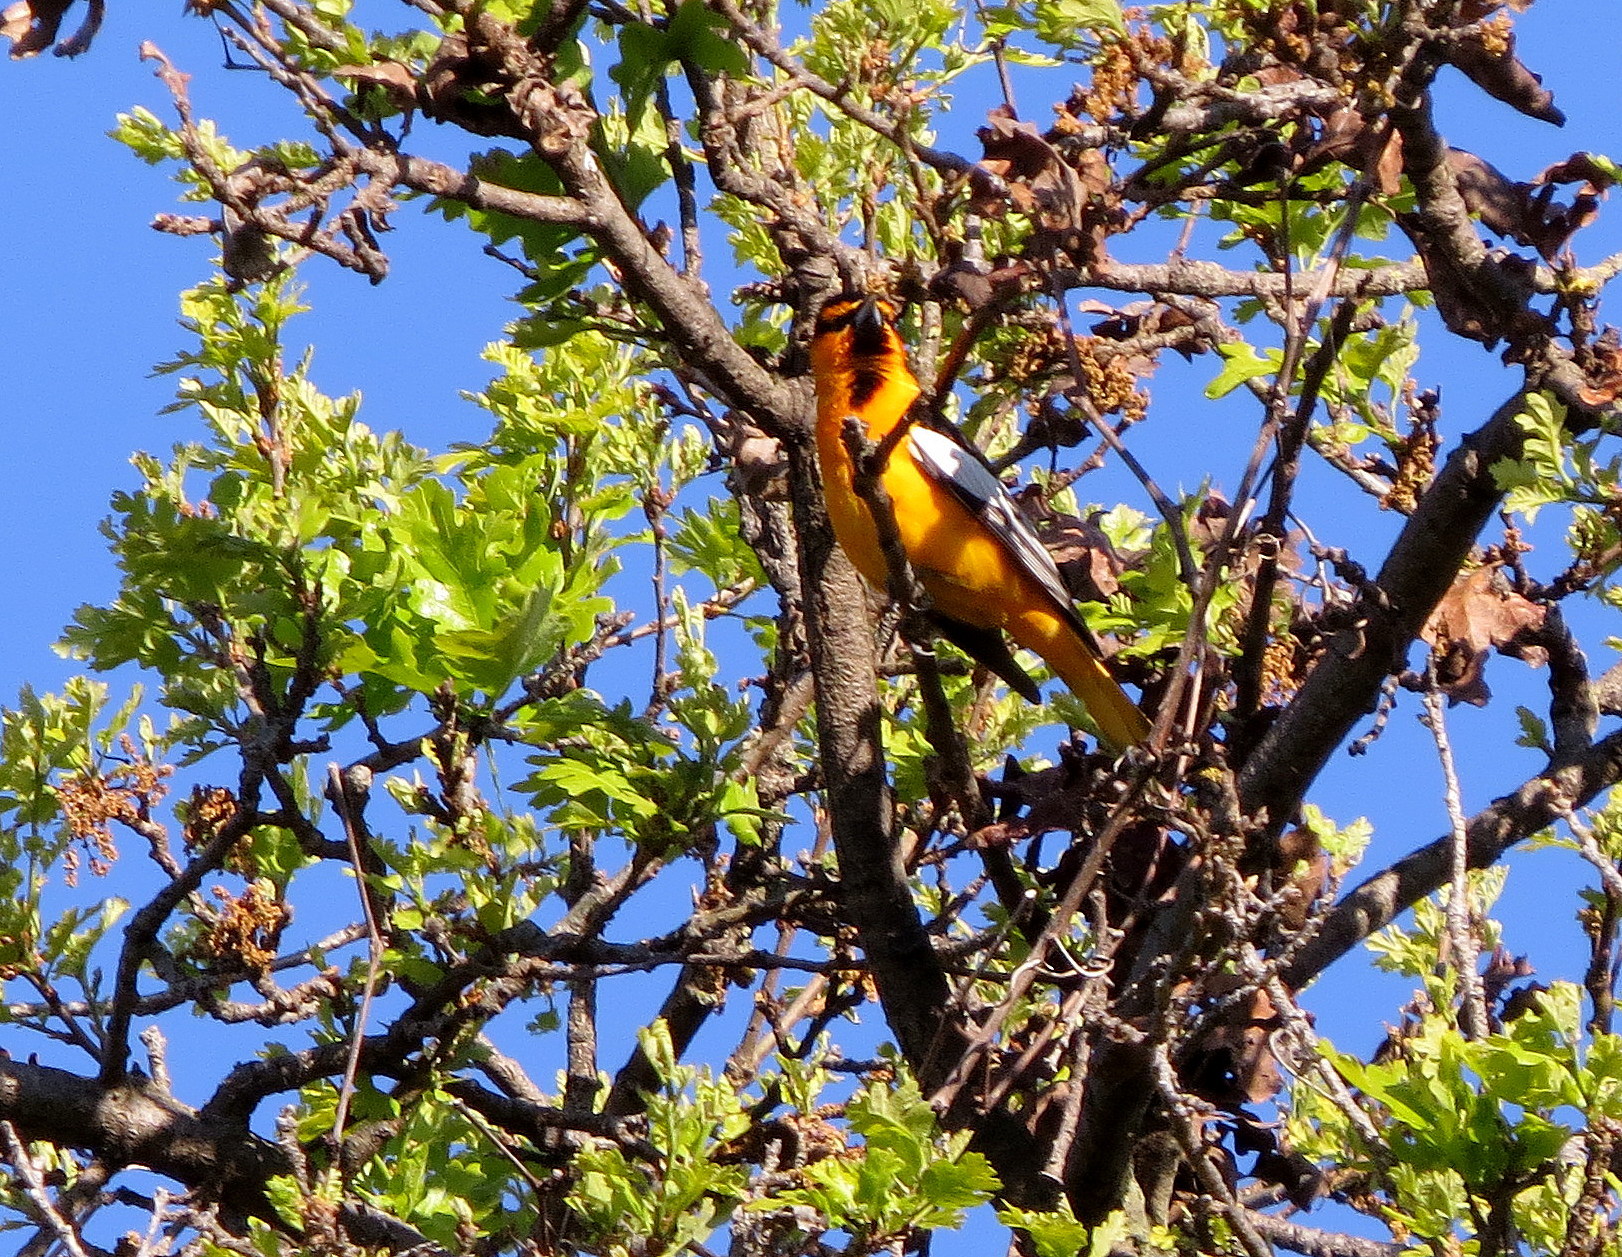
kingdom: Animalia
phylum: Chordata
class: Aves
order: Passeriformes
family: Icteridae
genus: Icterus
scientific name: Icterus bullockii
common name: Bullock's oriole
